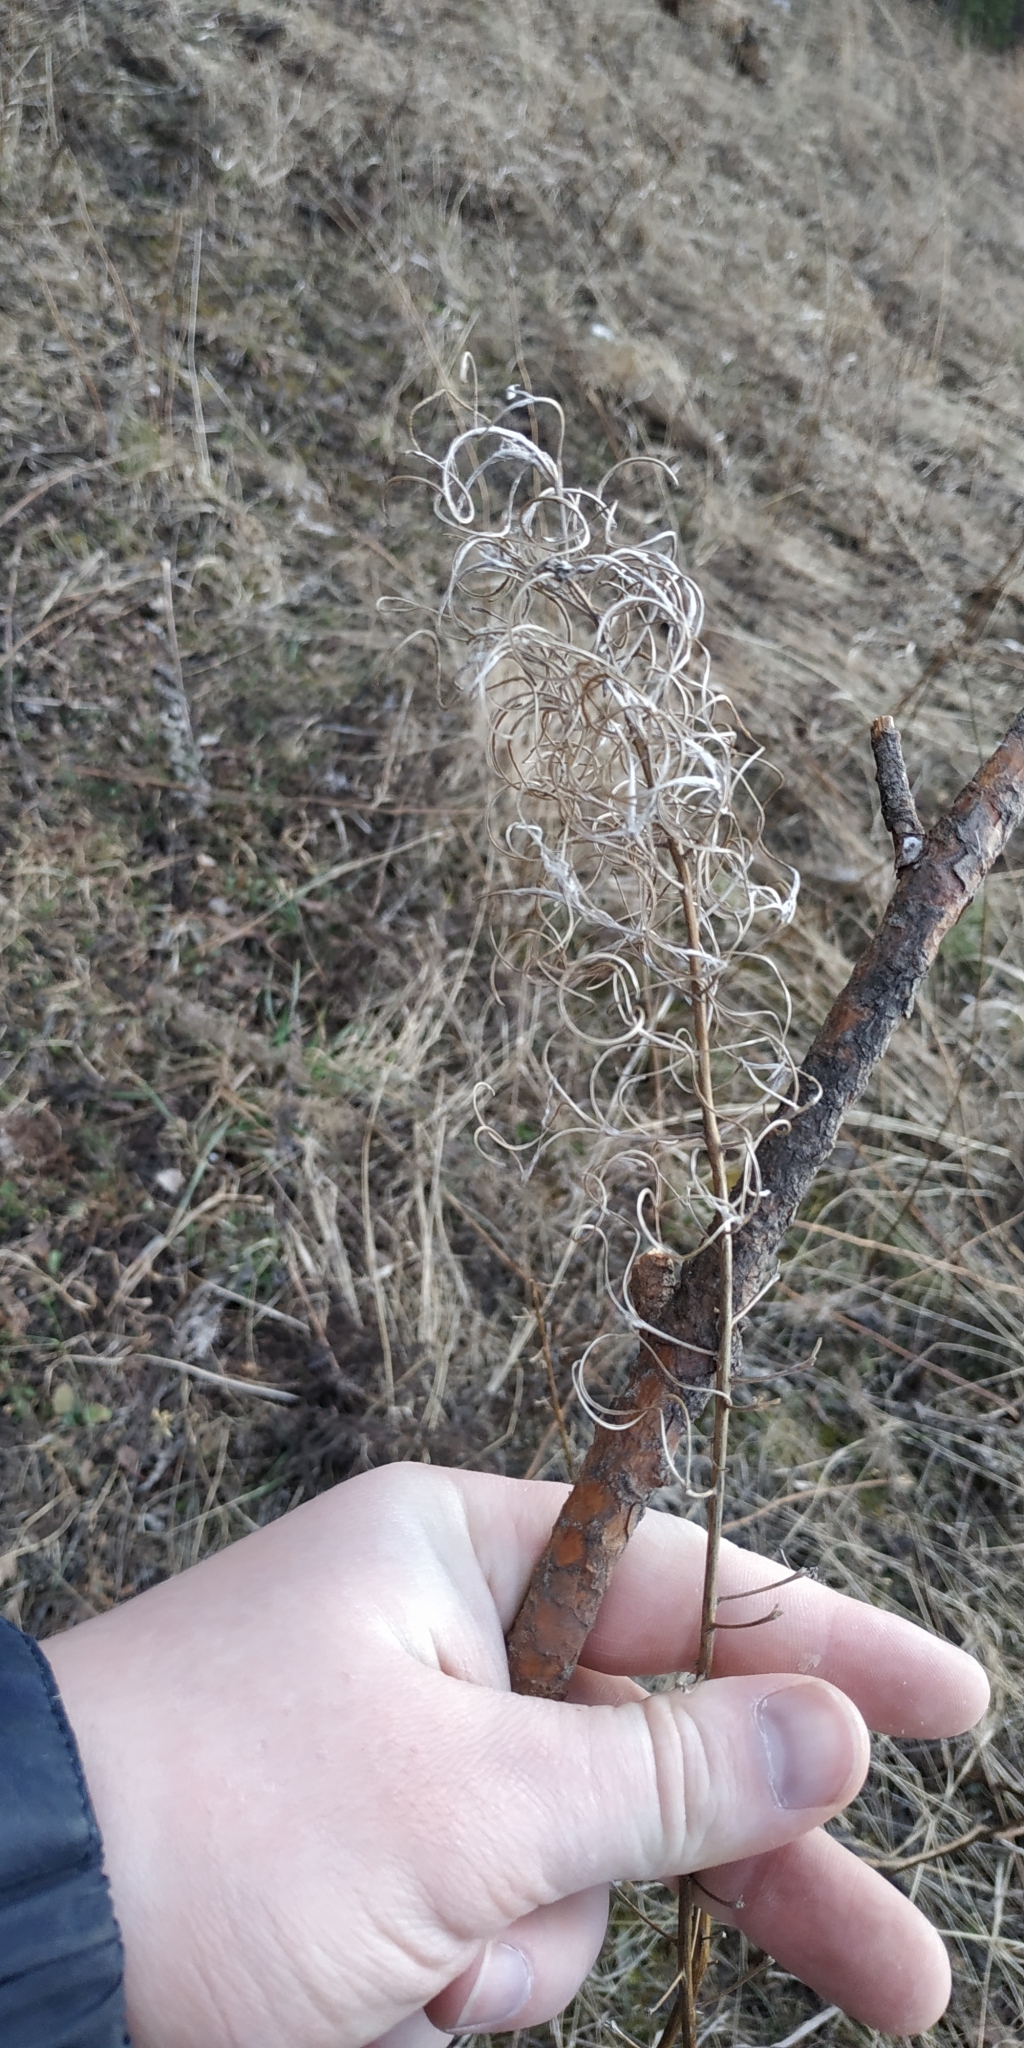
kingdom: Plantae
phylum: Tracheophyta
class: Magnoliopsida
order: Myrtales
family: Onagraceae
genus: Chamaenerion
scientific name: Chamaenerion angustifolium
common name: Fireweed
